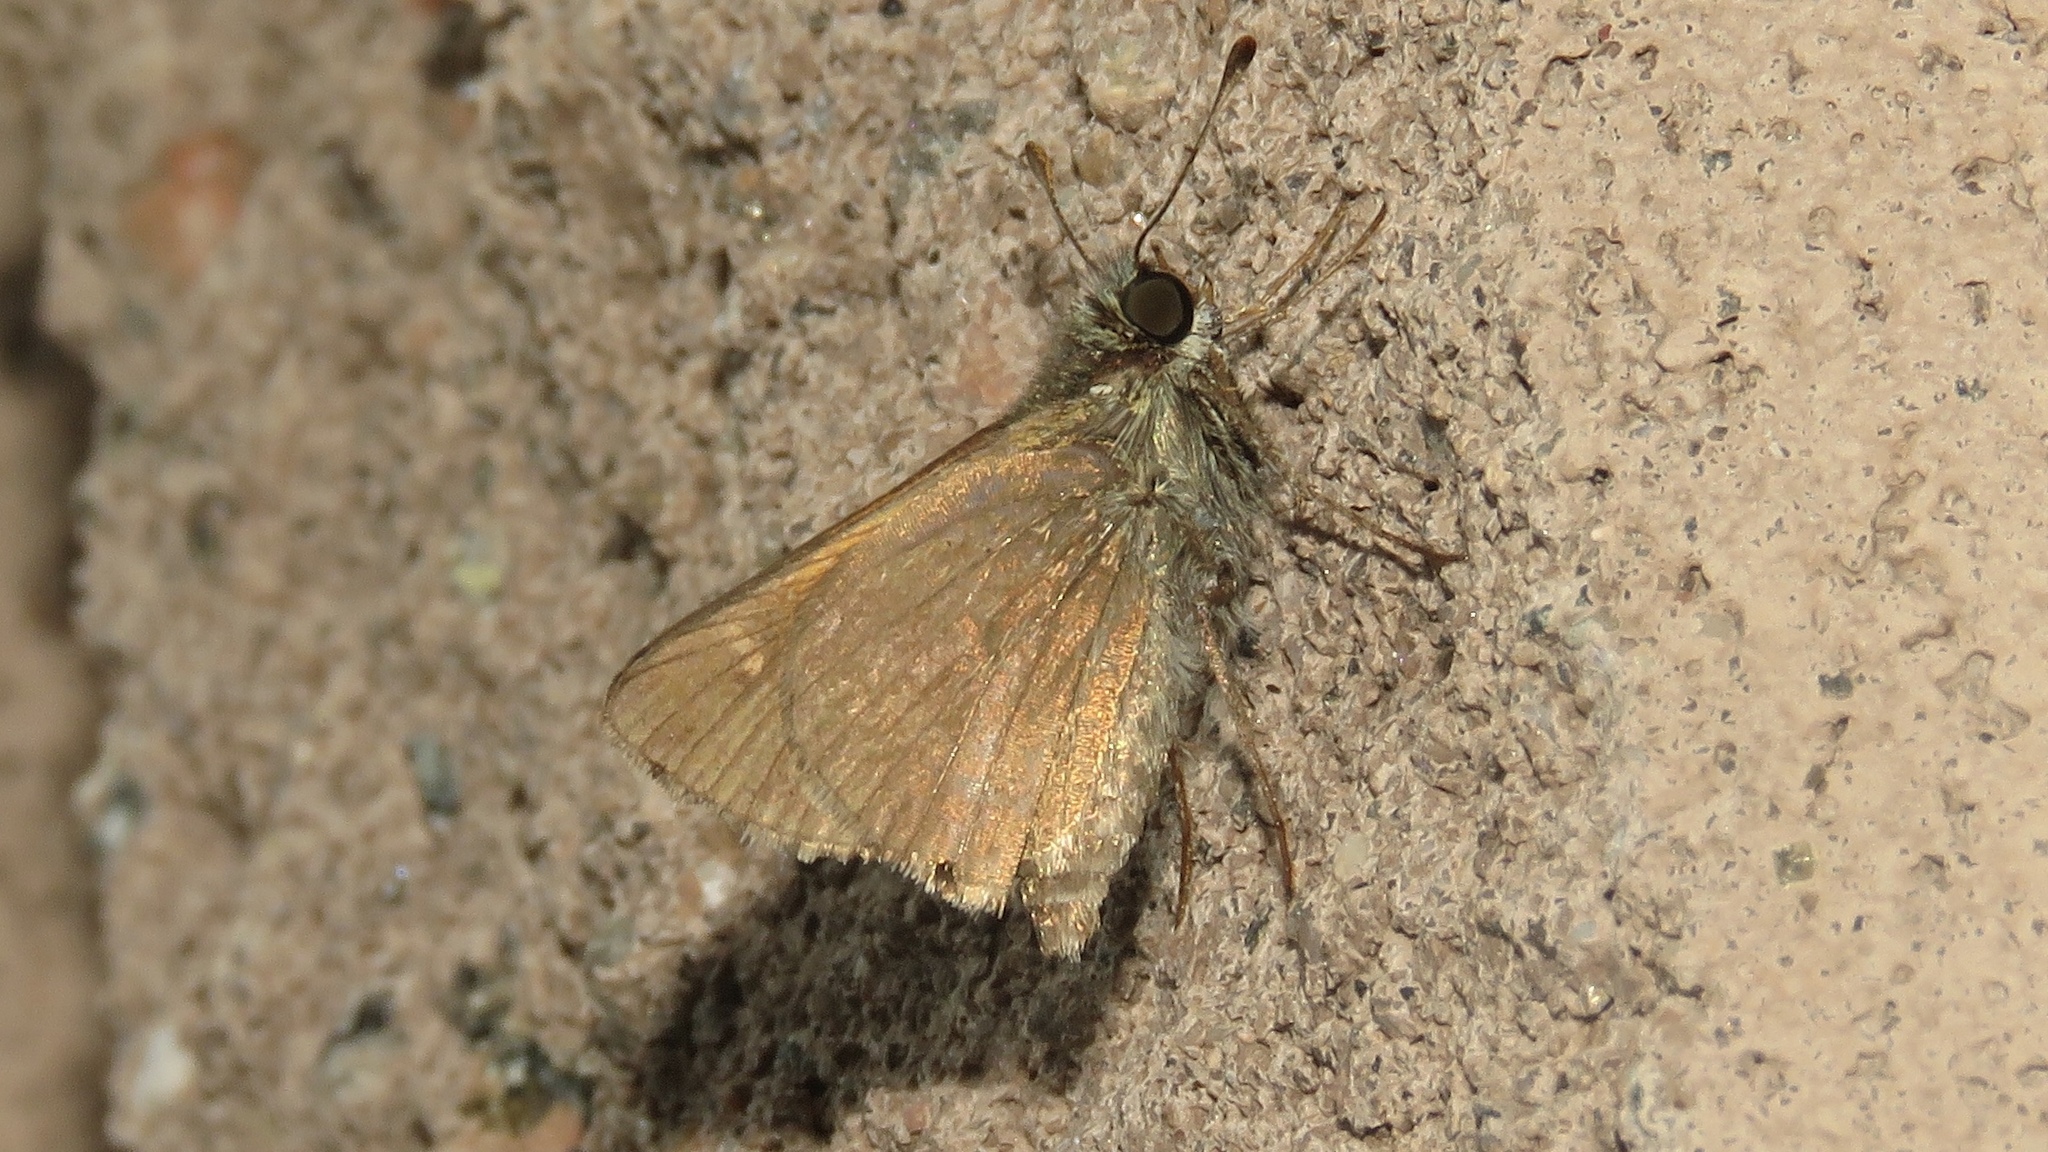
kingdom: Animalia
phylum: Arthropoda
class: Insecta
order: Lepidoptera
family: Hesperiidae
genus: Polites
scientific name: Polites themistocles
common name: Tawny-edged skipper
